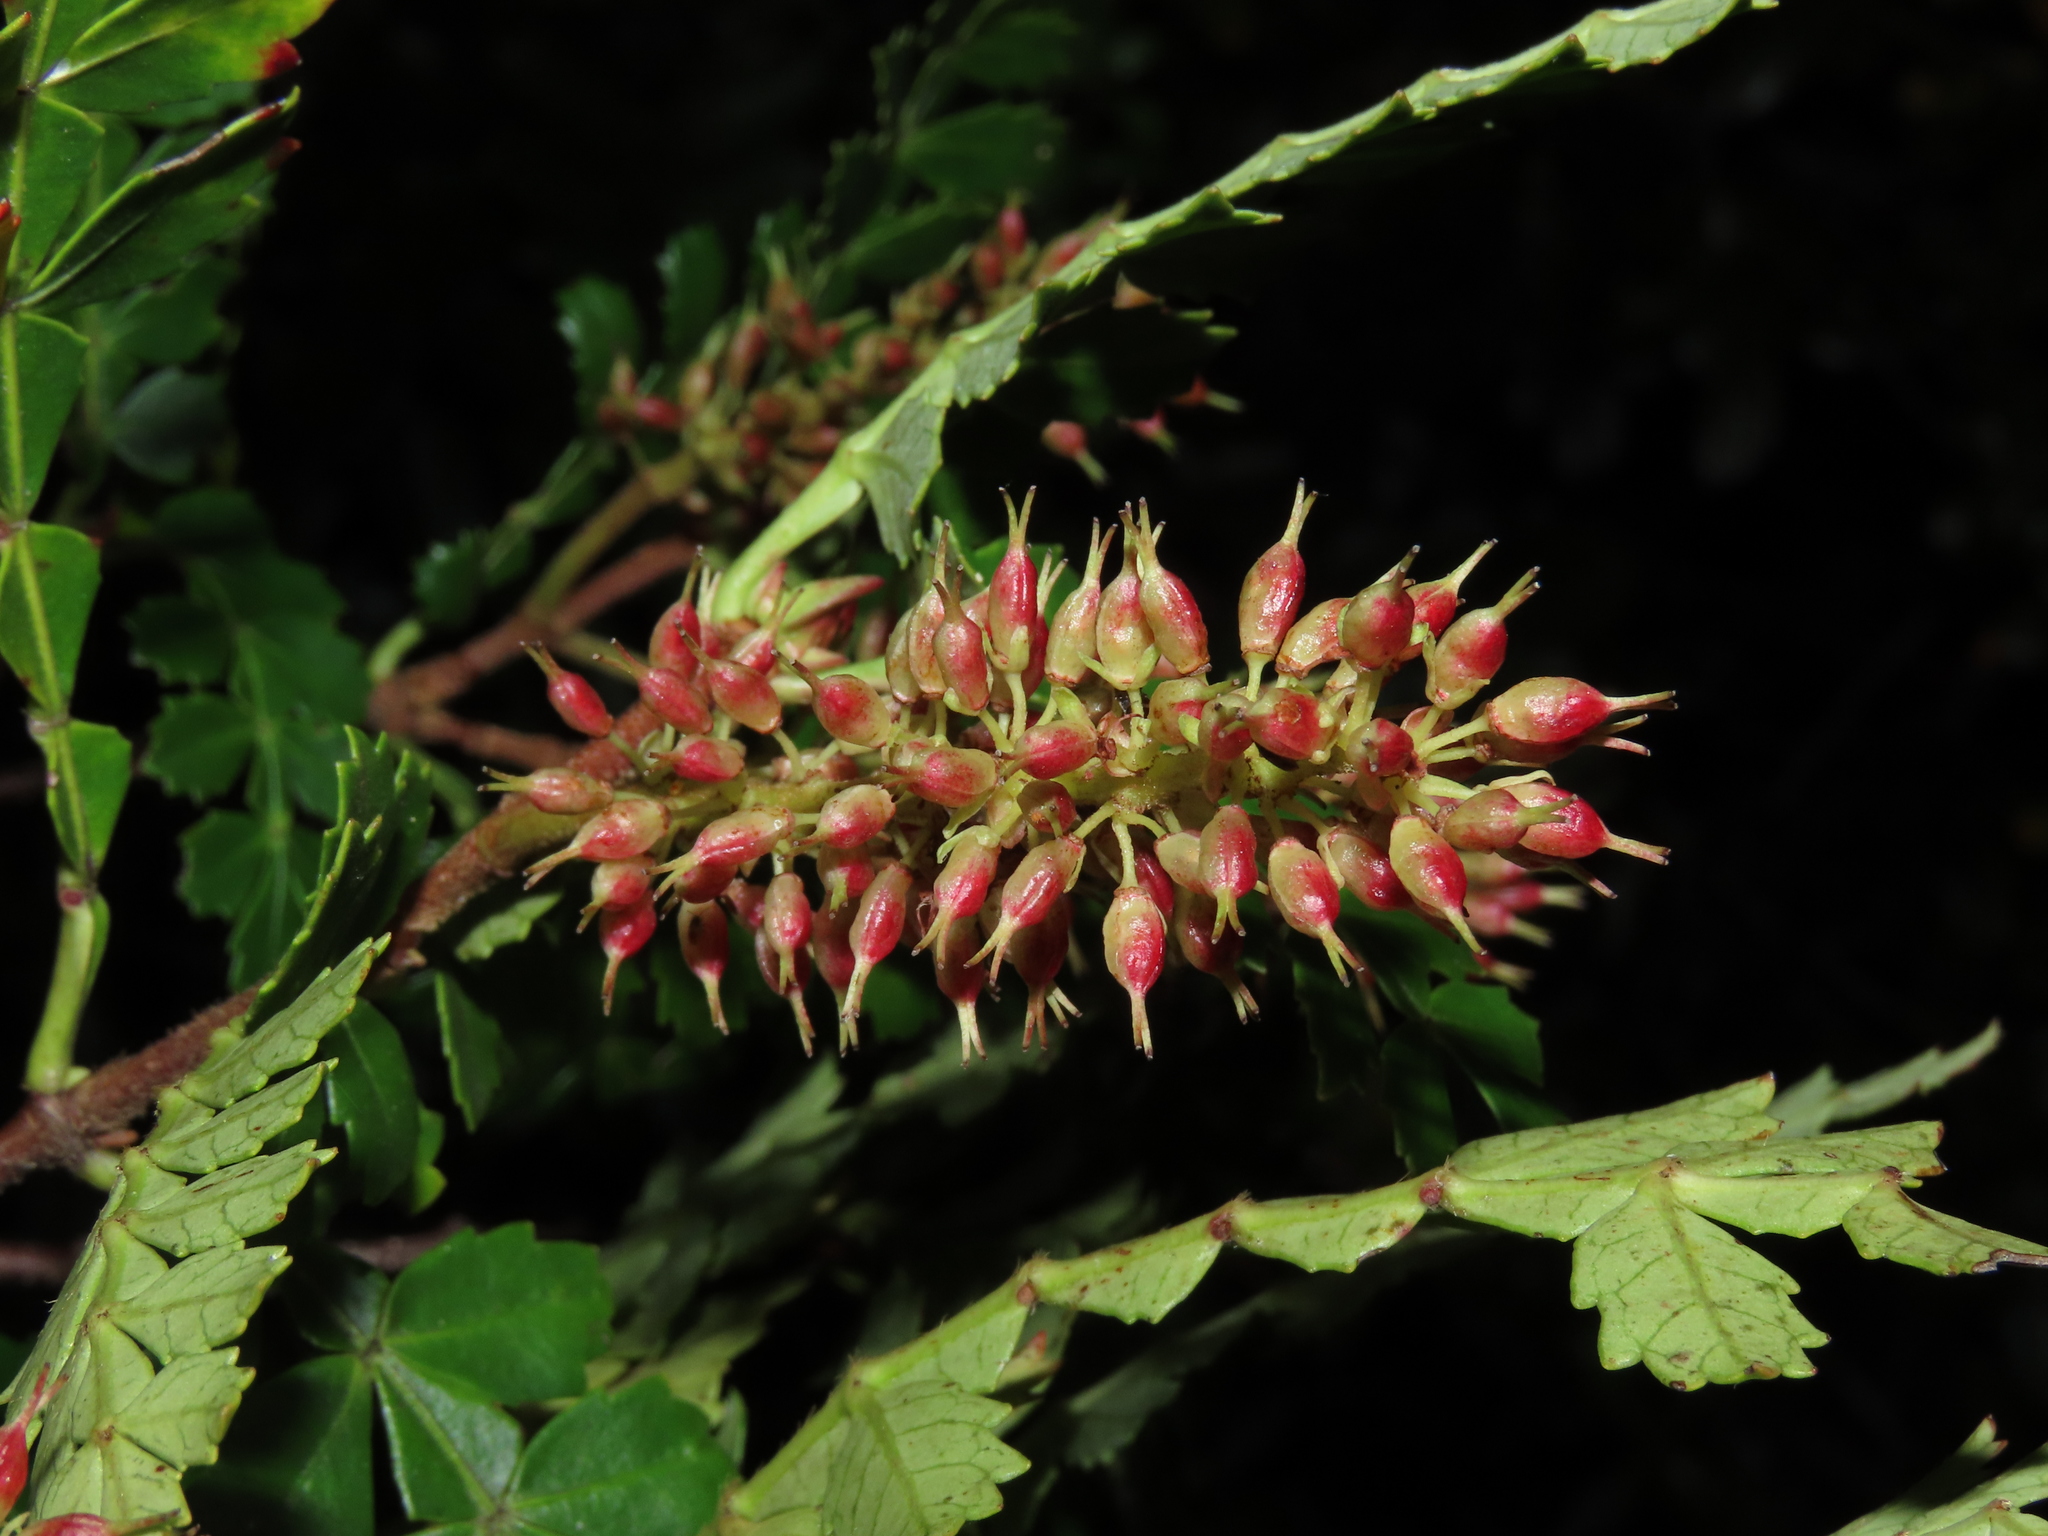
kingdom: Plantae
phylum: Tracheophyta
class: Magnoliopsida
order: Oxalidales
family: Cunoniaceae
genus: Weinmannia
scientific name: Weinmannia trichosperma
